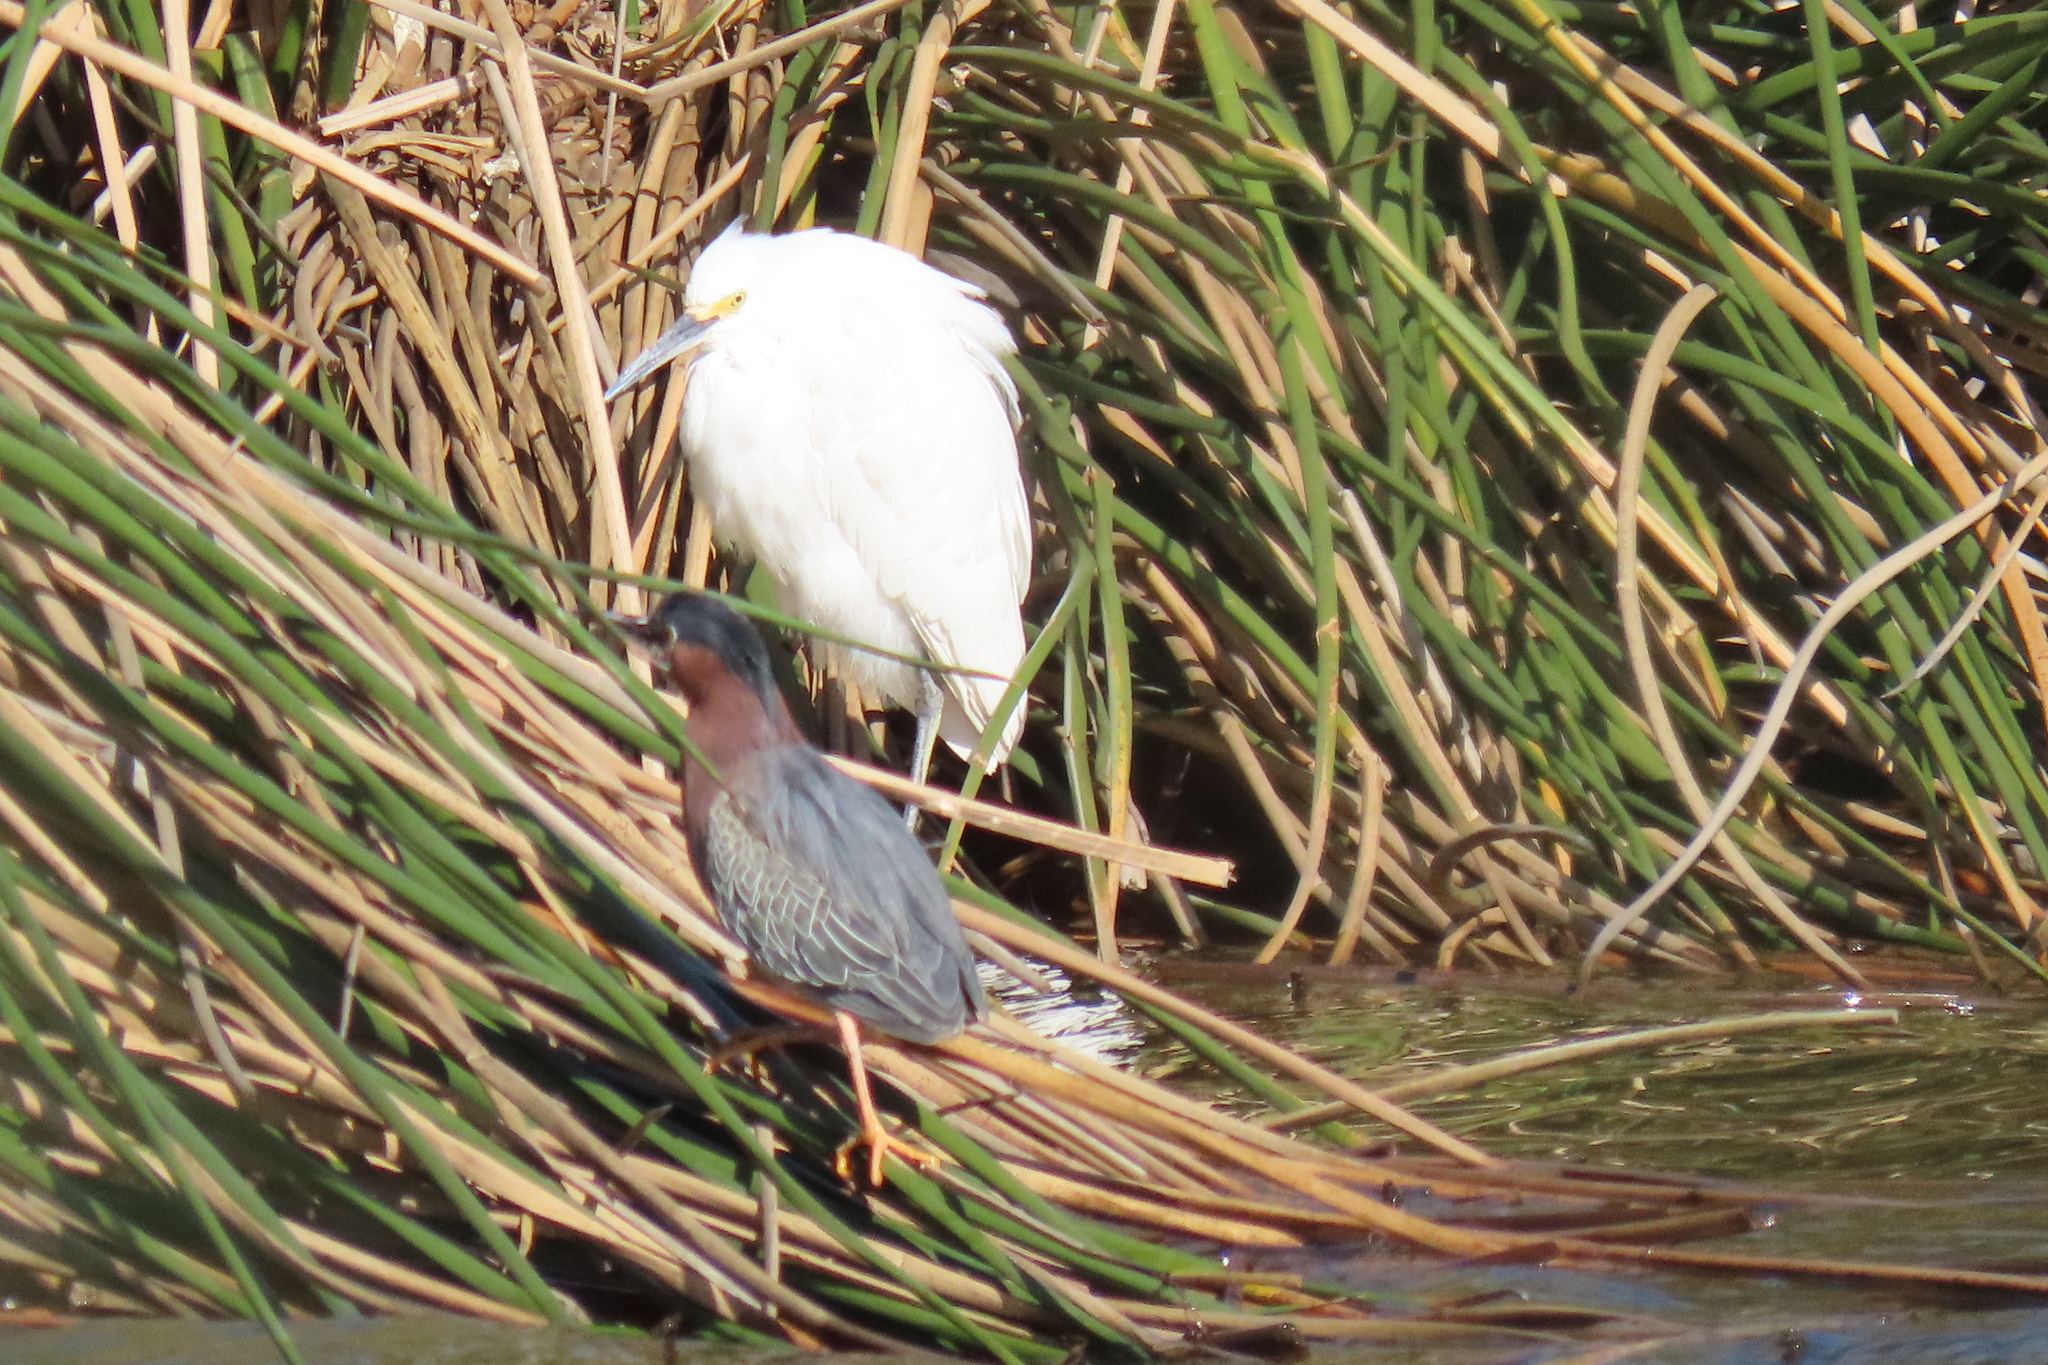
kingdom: Animalia
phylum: Chordata
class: Aves
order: Pelecaniformes
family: Ardeidae
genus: Egretta
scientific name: Egretta thula
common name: Snowy egret
